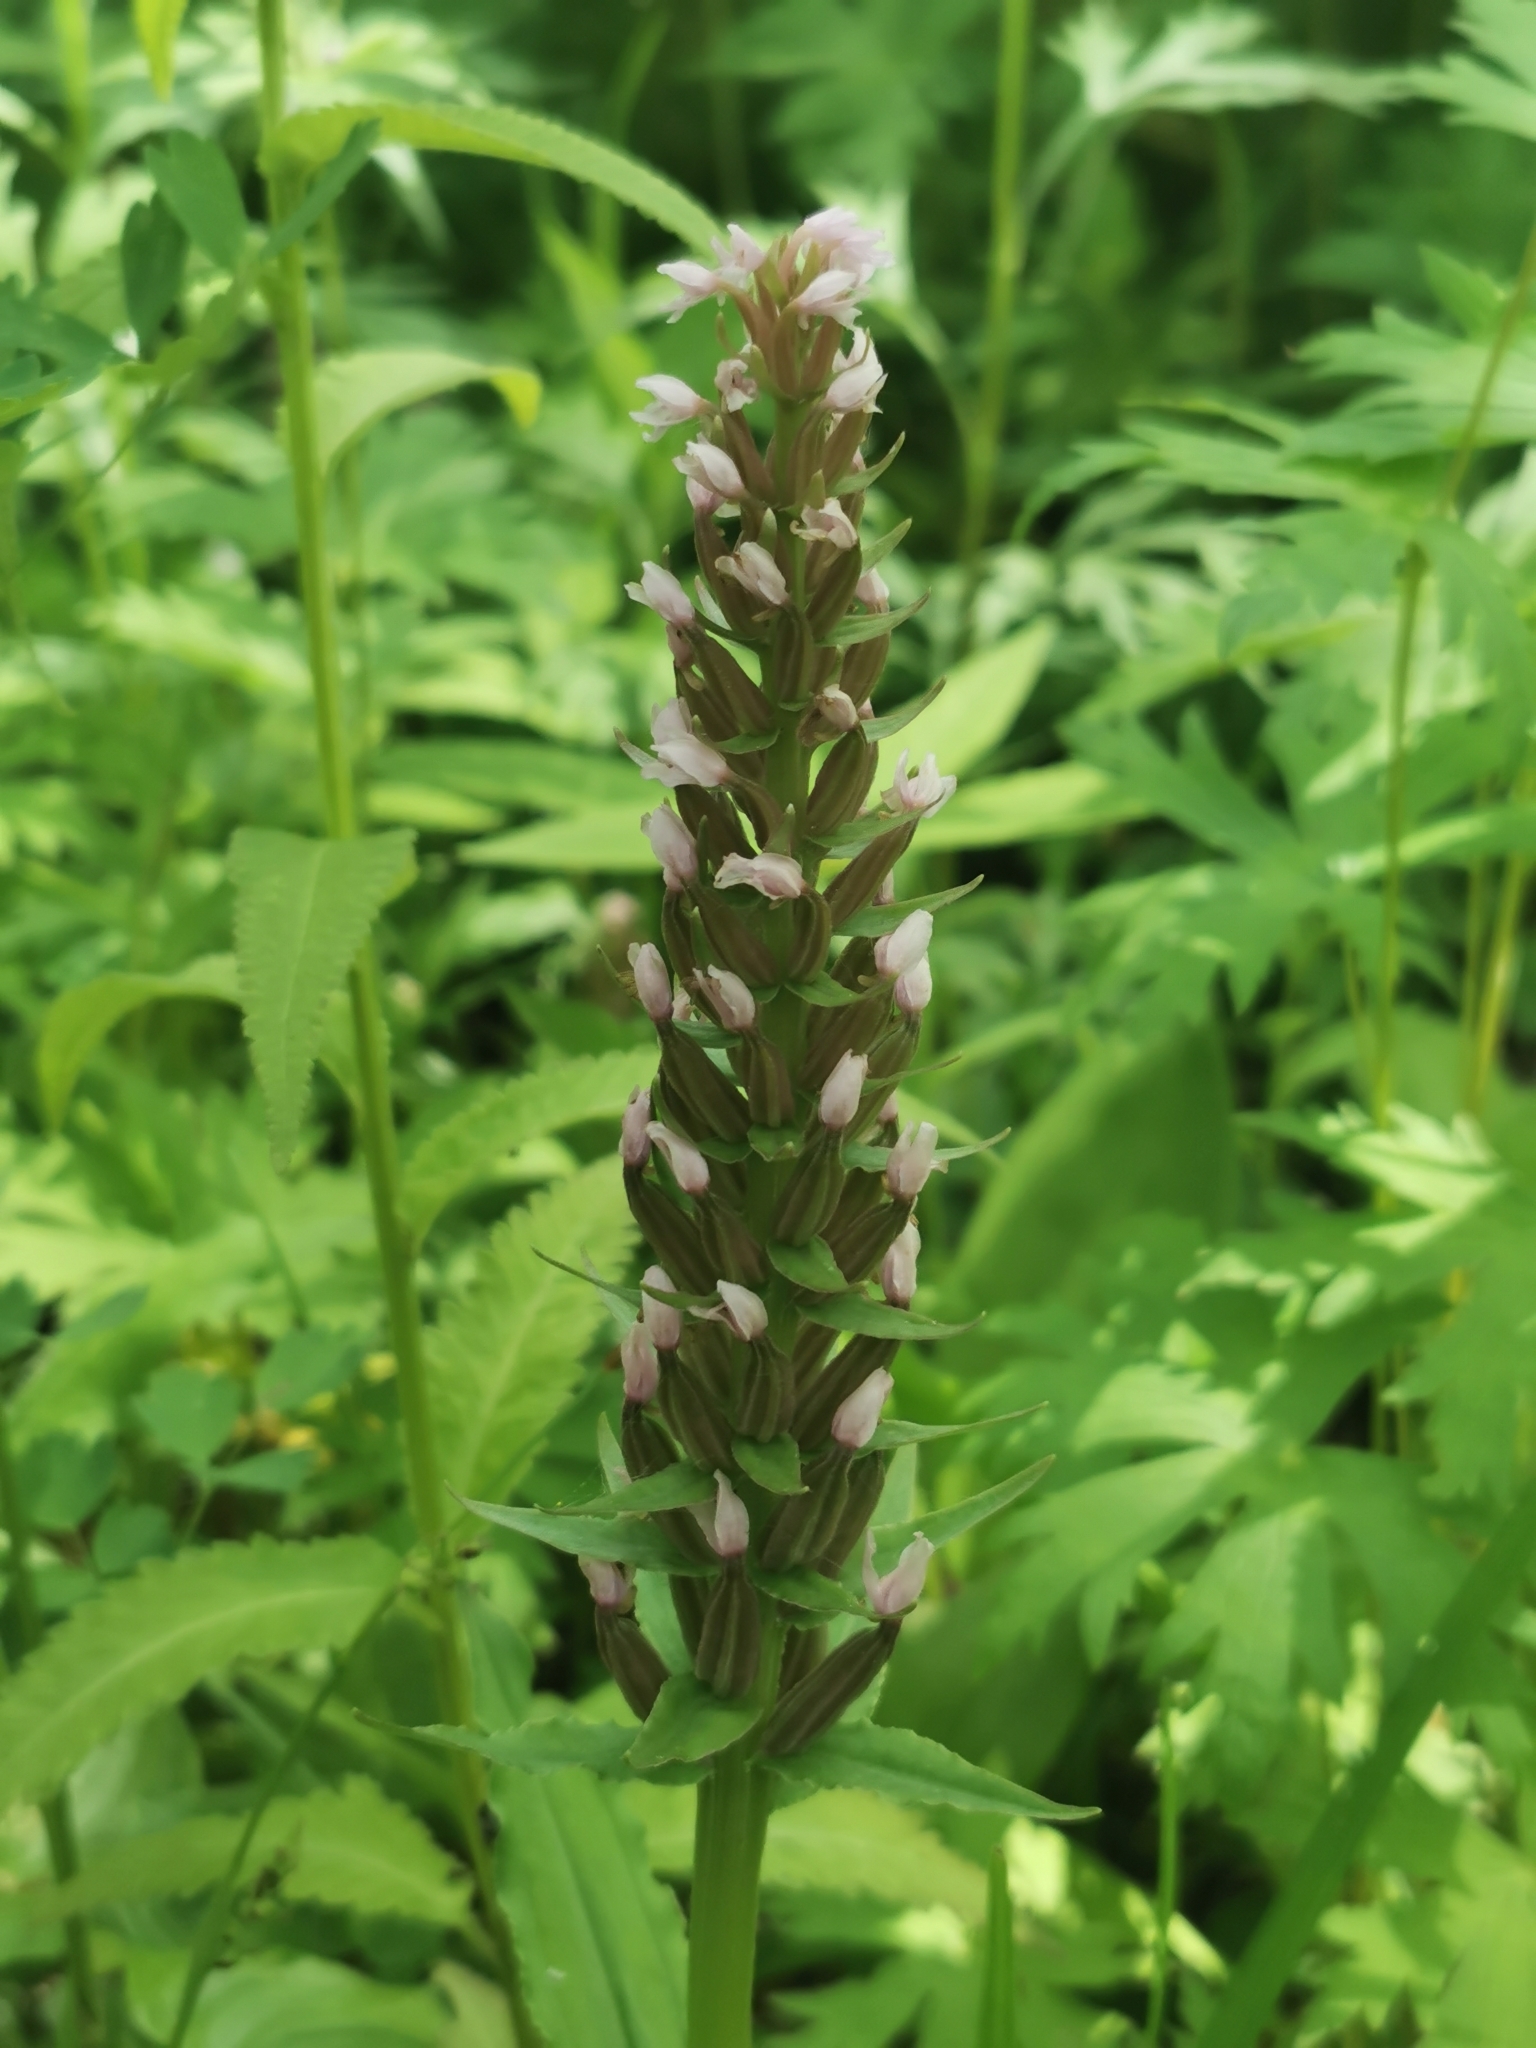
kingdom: Plantae
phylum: Tracheophyta
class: Liliopsida
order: Asparagales
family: Orchidaceae
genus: Galearis
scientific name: Galearis camtschatica
